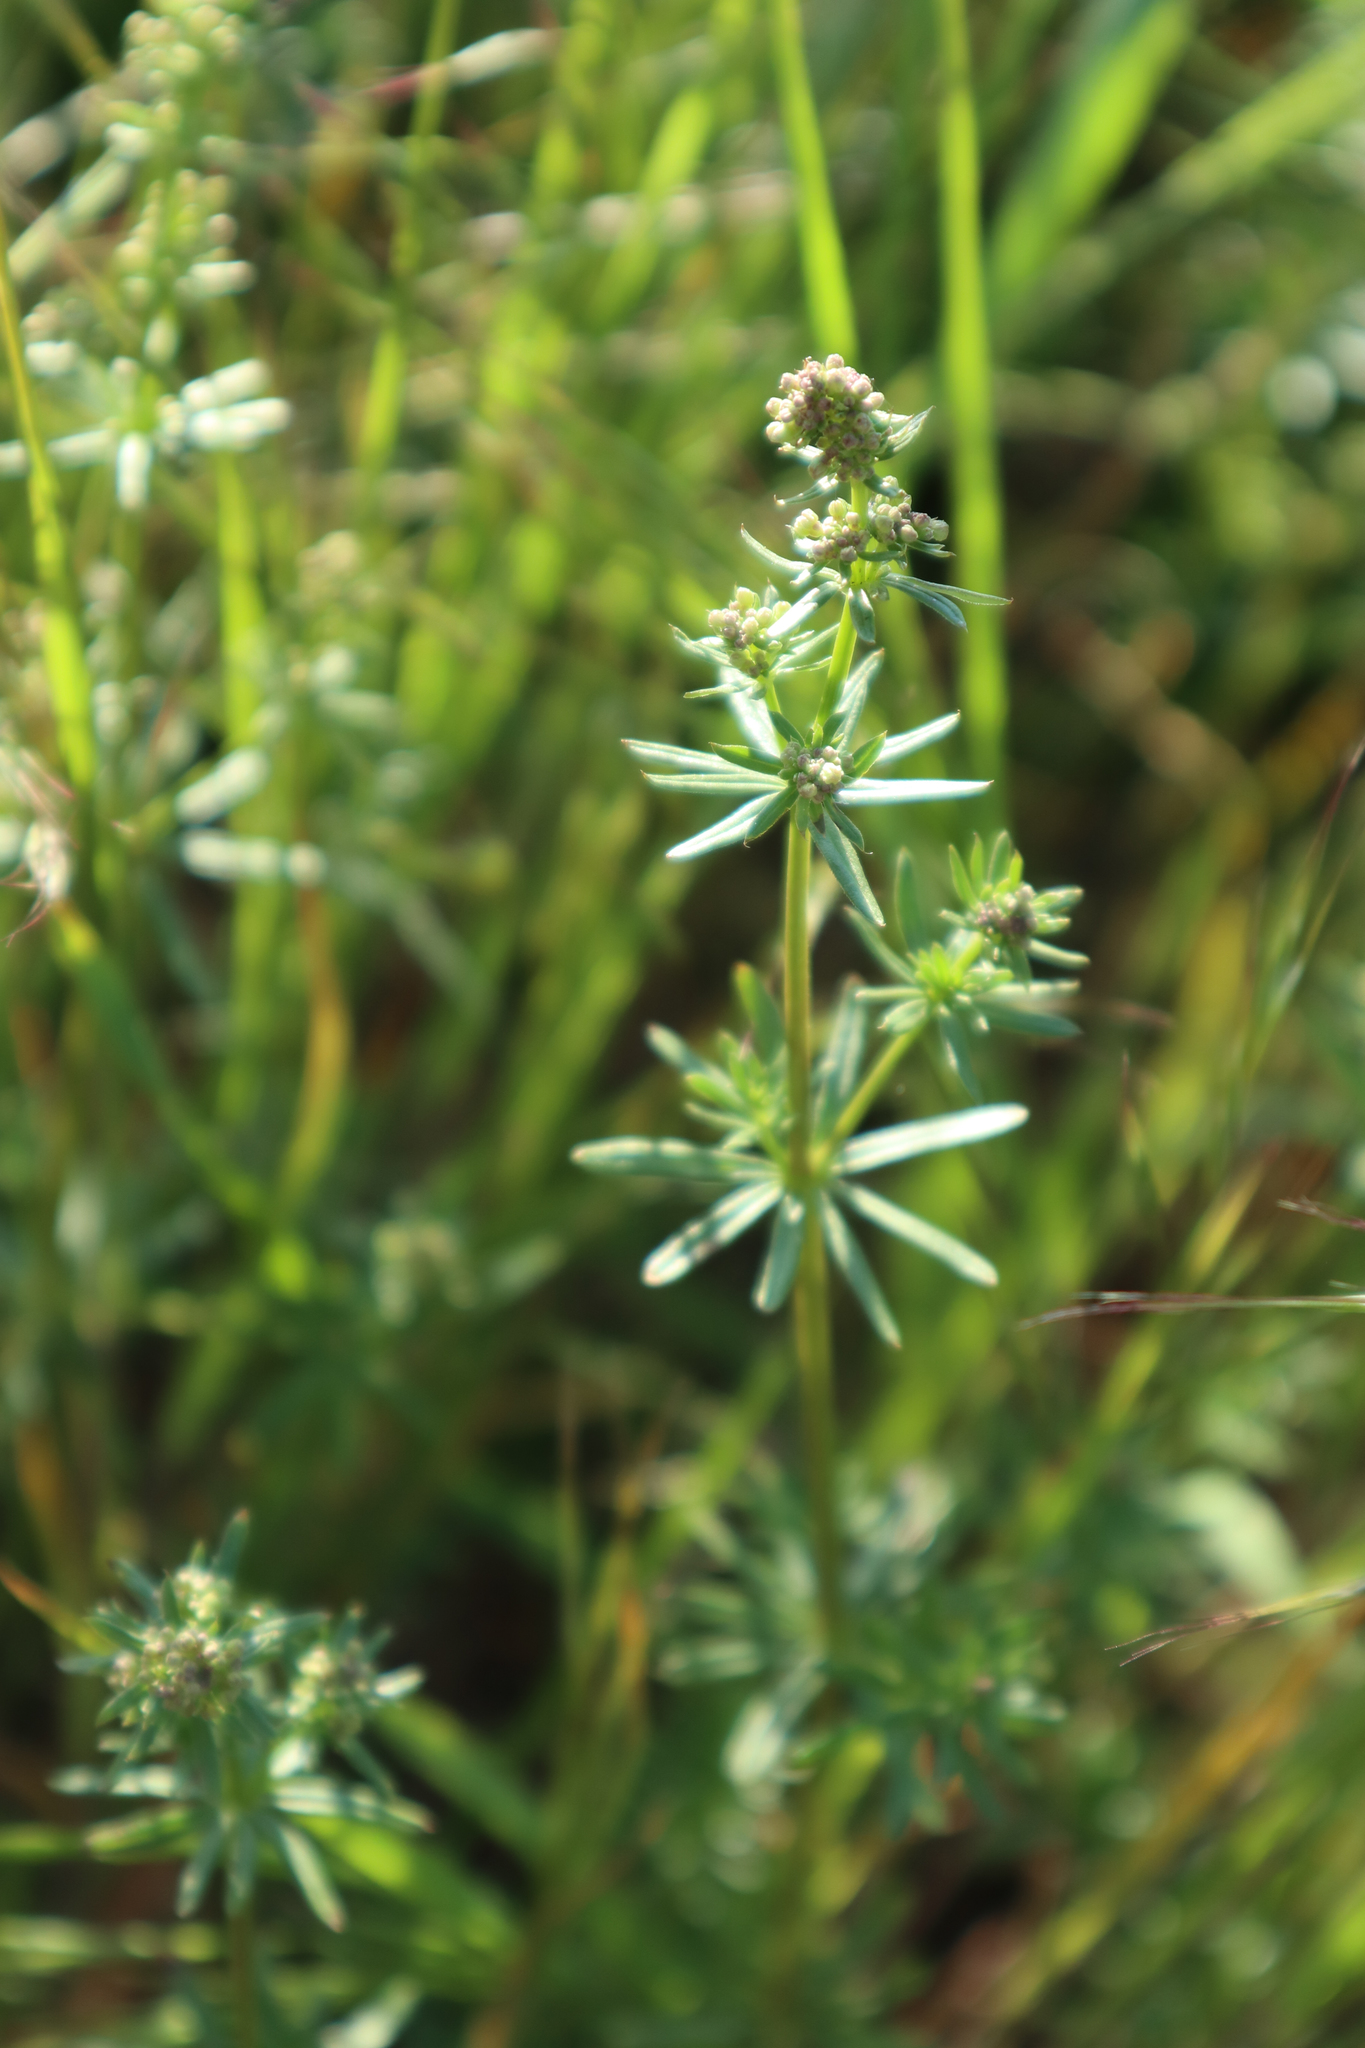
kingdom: Plantae
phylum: Tracheophyta
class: Magnoliopsida
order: Gentianales
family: Rubiaceae
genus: Galium
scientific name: Galium mollugo
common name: Hedge bedstraw
